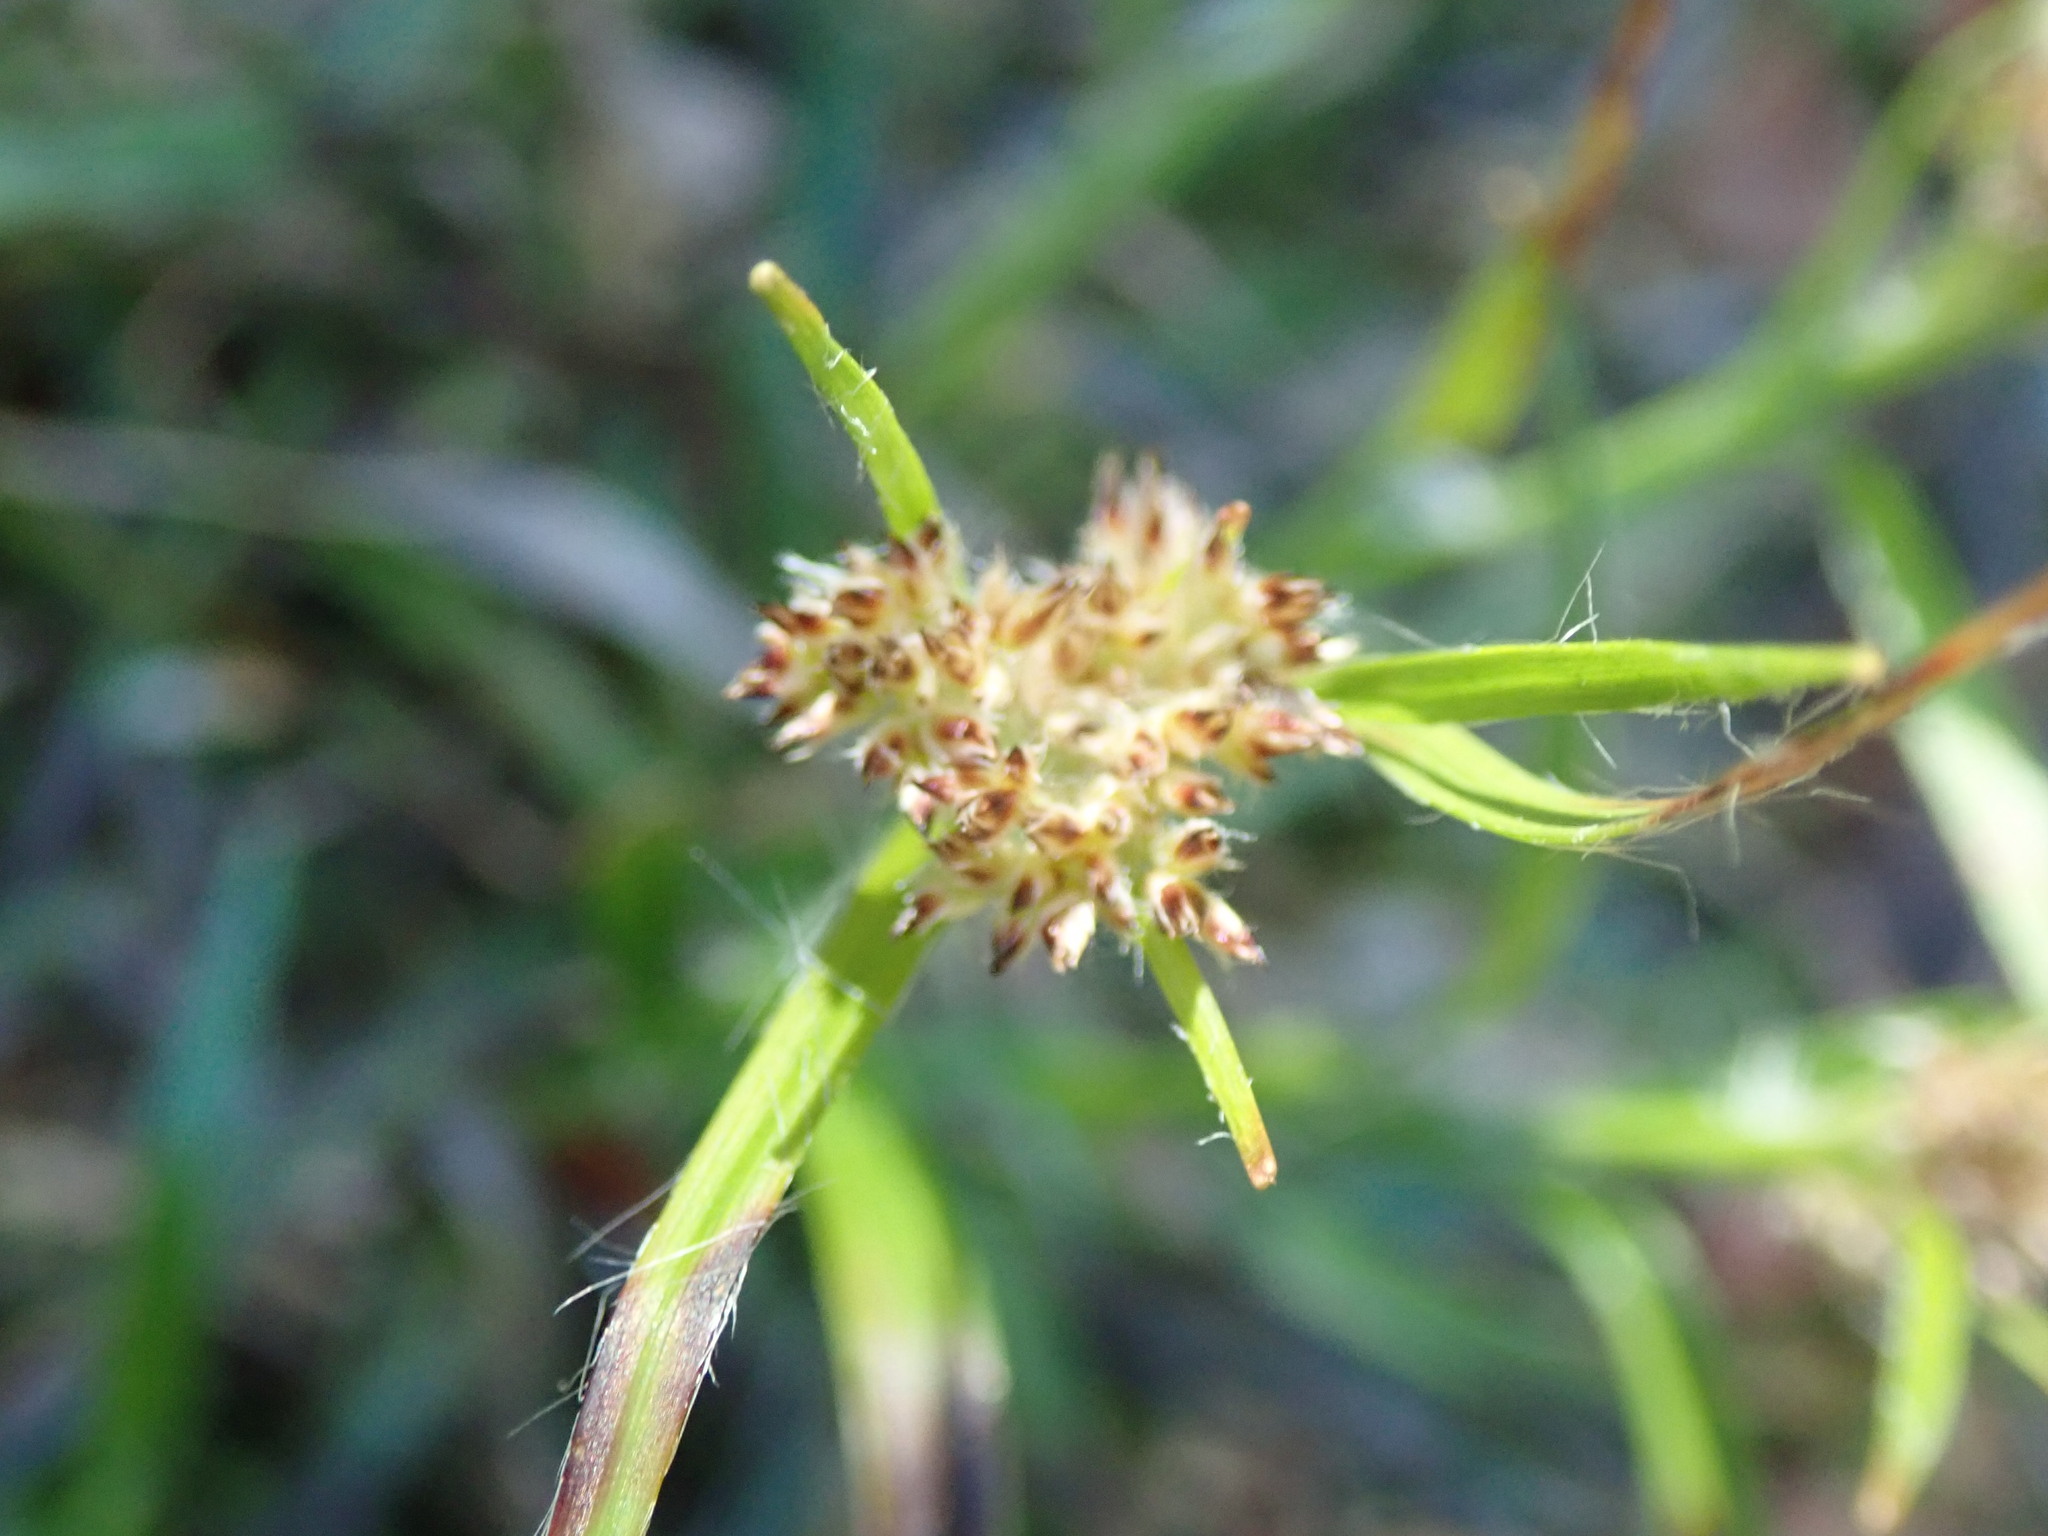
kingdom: Plantae
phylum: Tracheophyta
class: Liliopsida
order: Poales
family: Juncaceae
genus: Luzula
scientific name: Luzula sylvatica
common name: Great wood-rush
